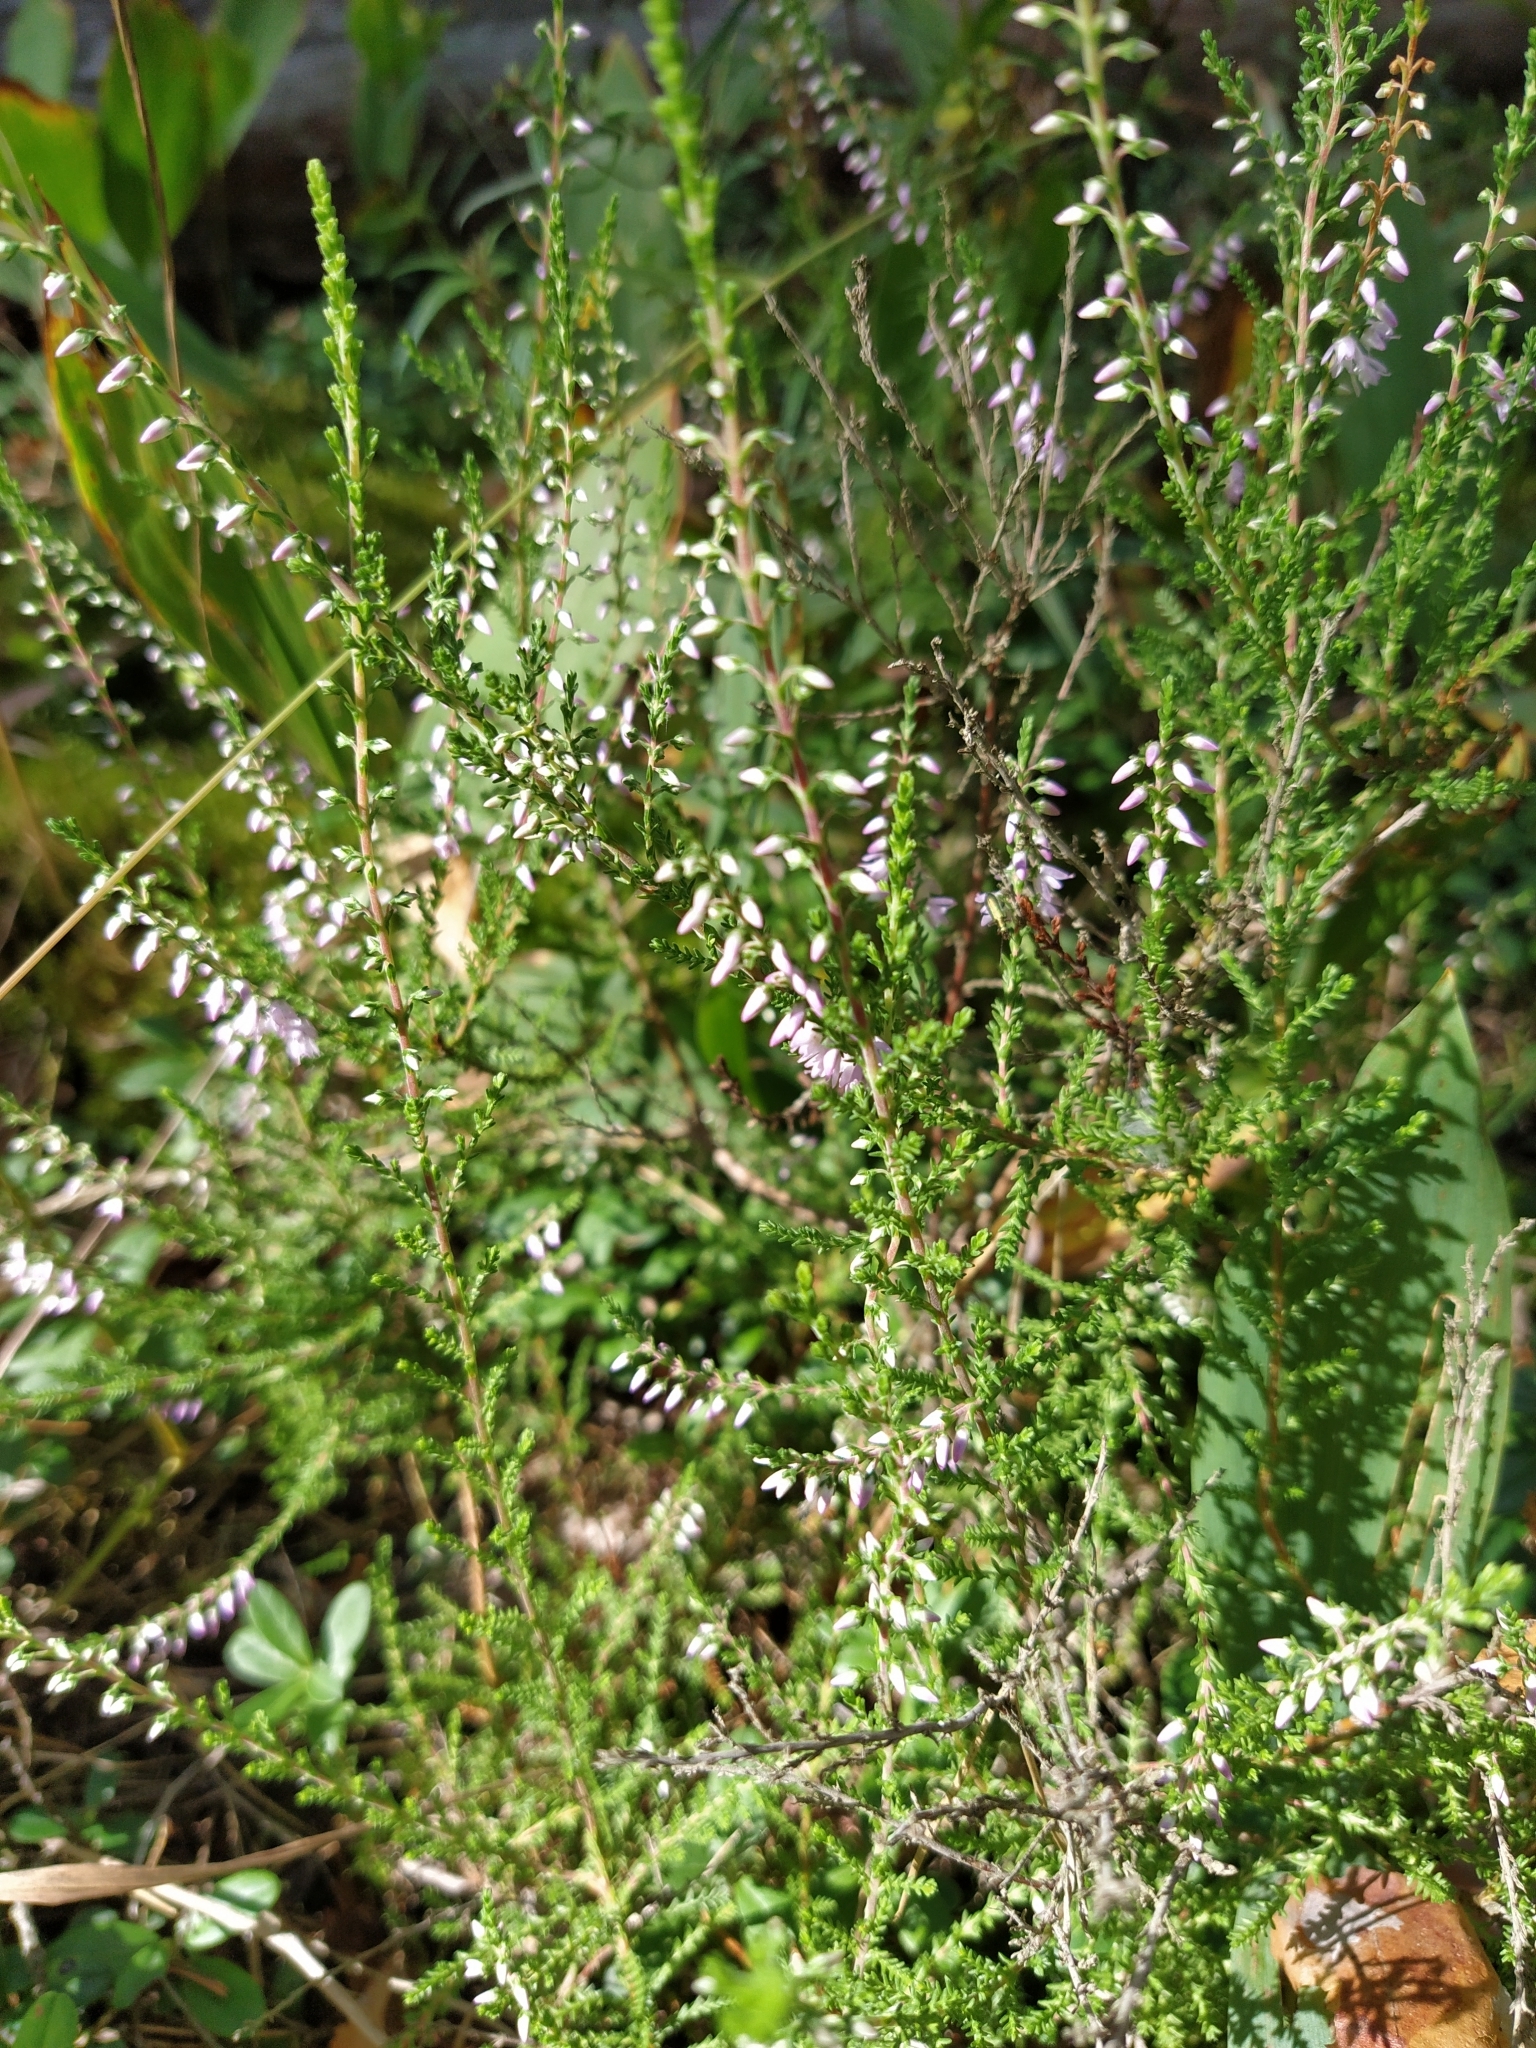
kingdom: Plantae
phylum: Tracheophyta
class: Magnoliopsida
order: Ericales
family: Ericaceae
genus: Calluna
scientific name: Calluna vulgaris
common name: Heather
